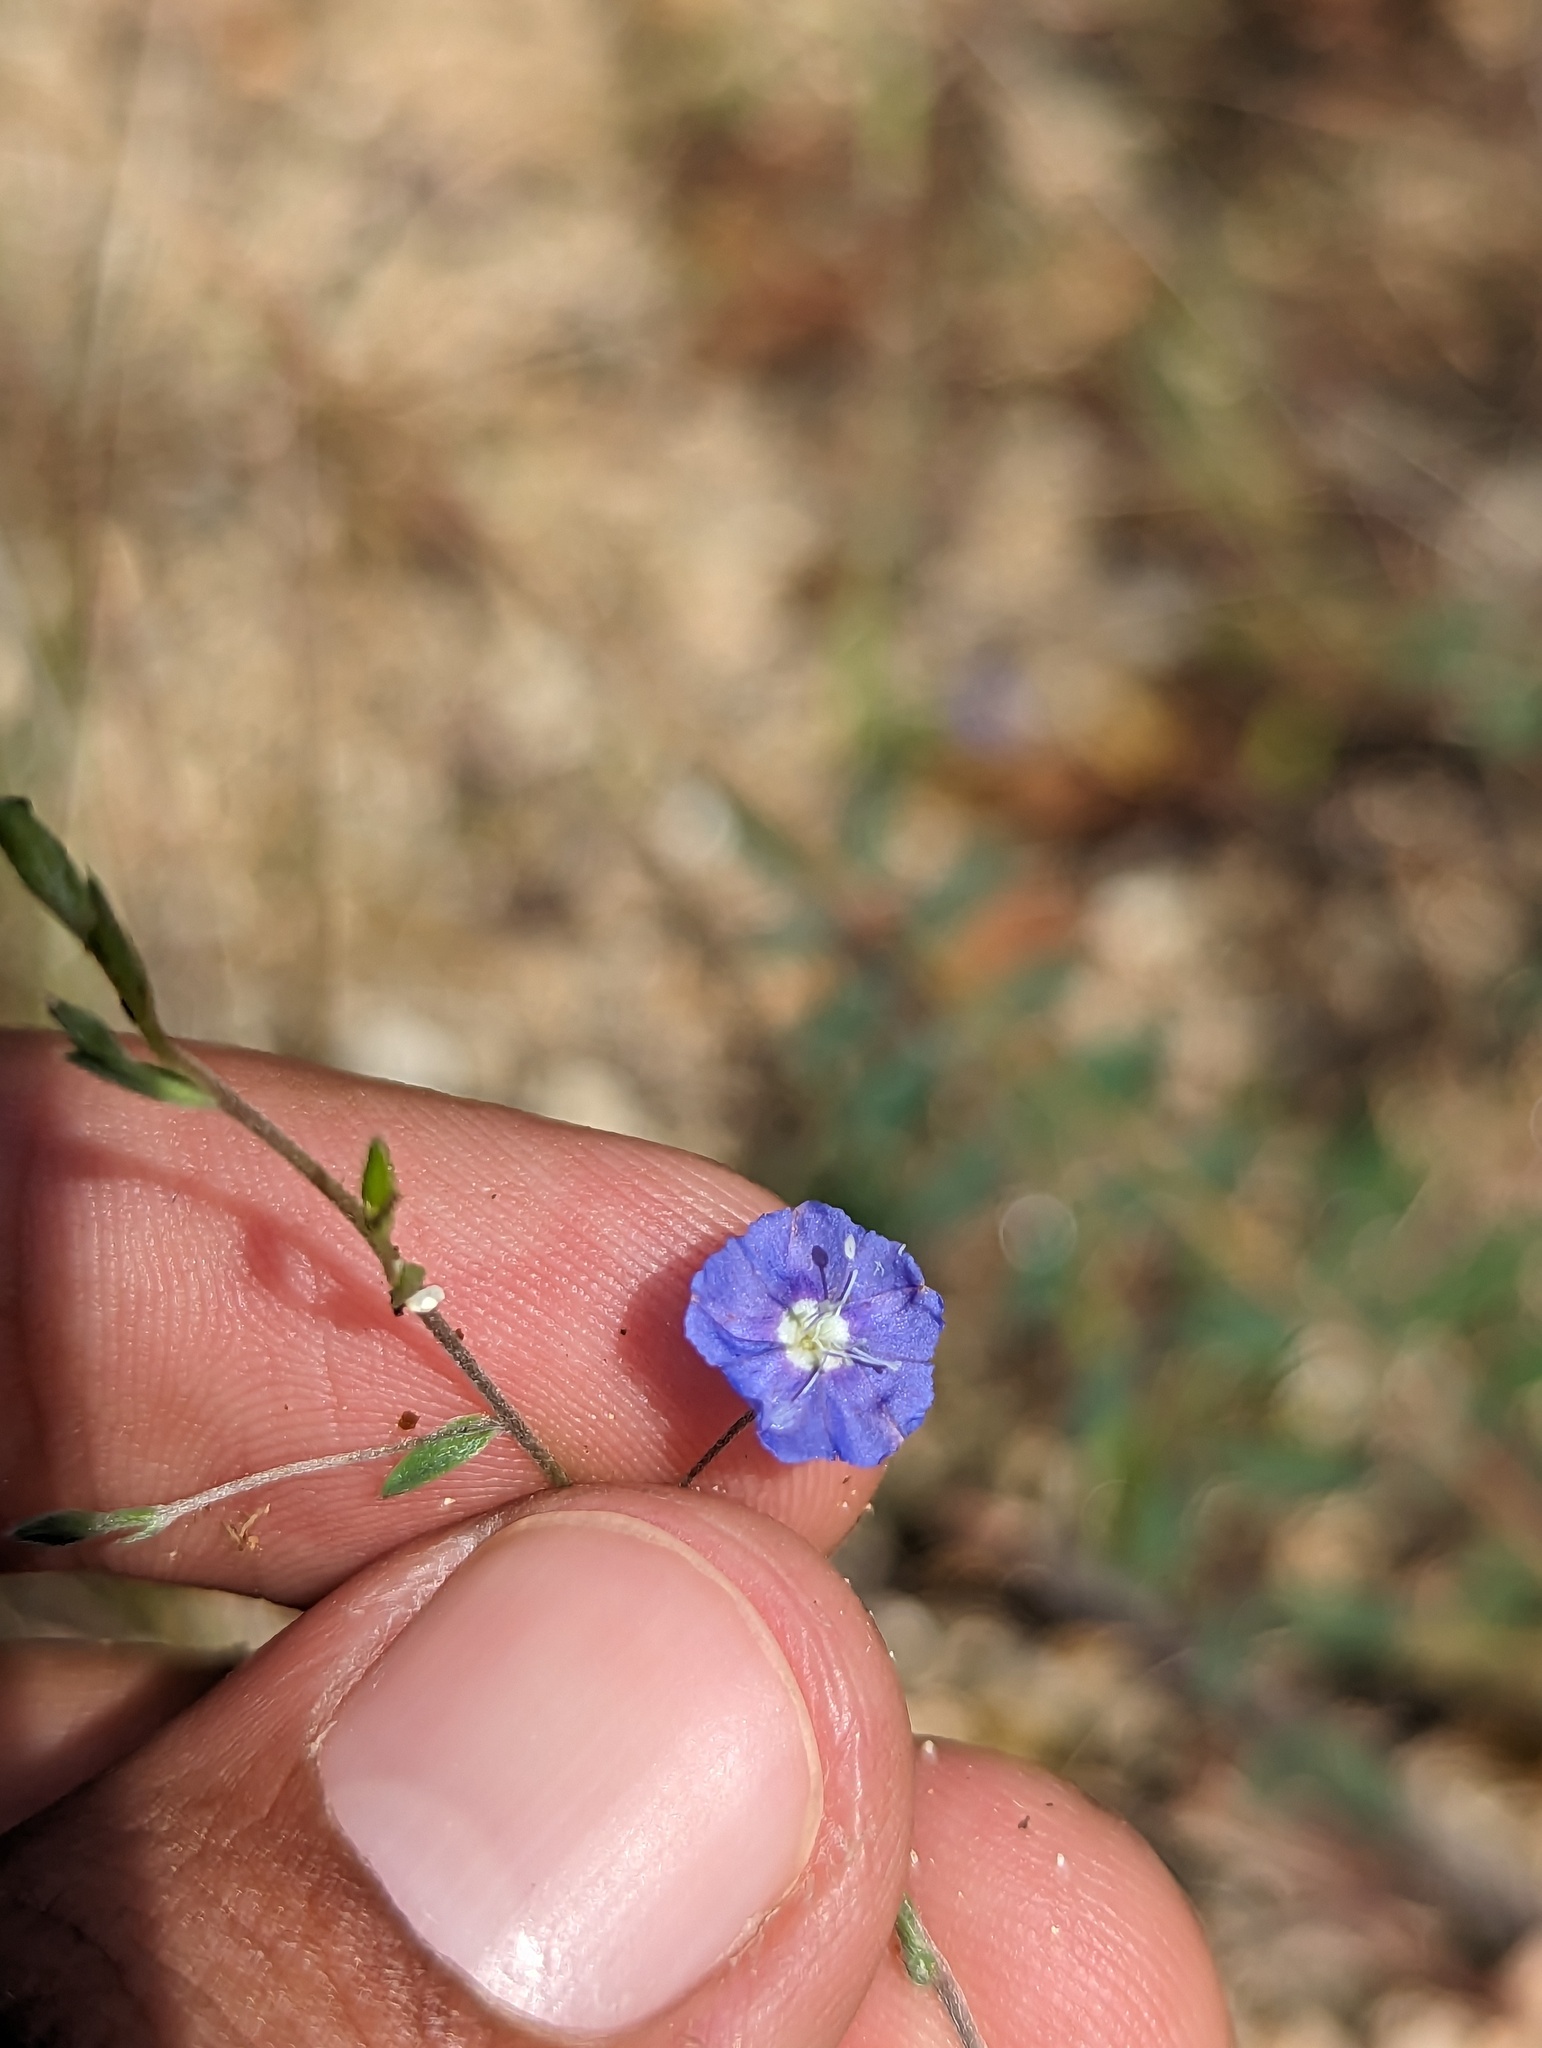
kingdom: Plantae
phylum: Tracheophyta
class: Magnoliopsida
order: Solanales
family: Convolvulaceae
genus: Evolvulus
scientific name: Evolvulus alsinoides
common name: Slender dwarf morning-glory
